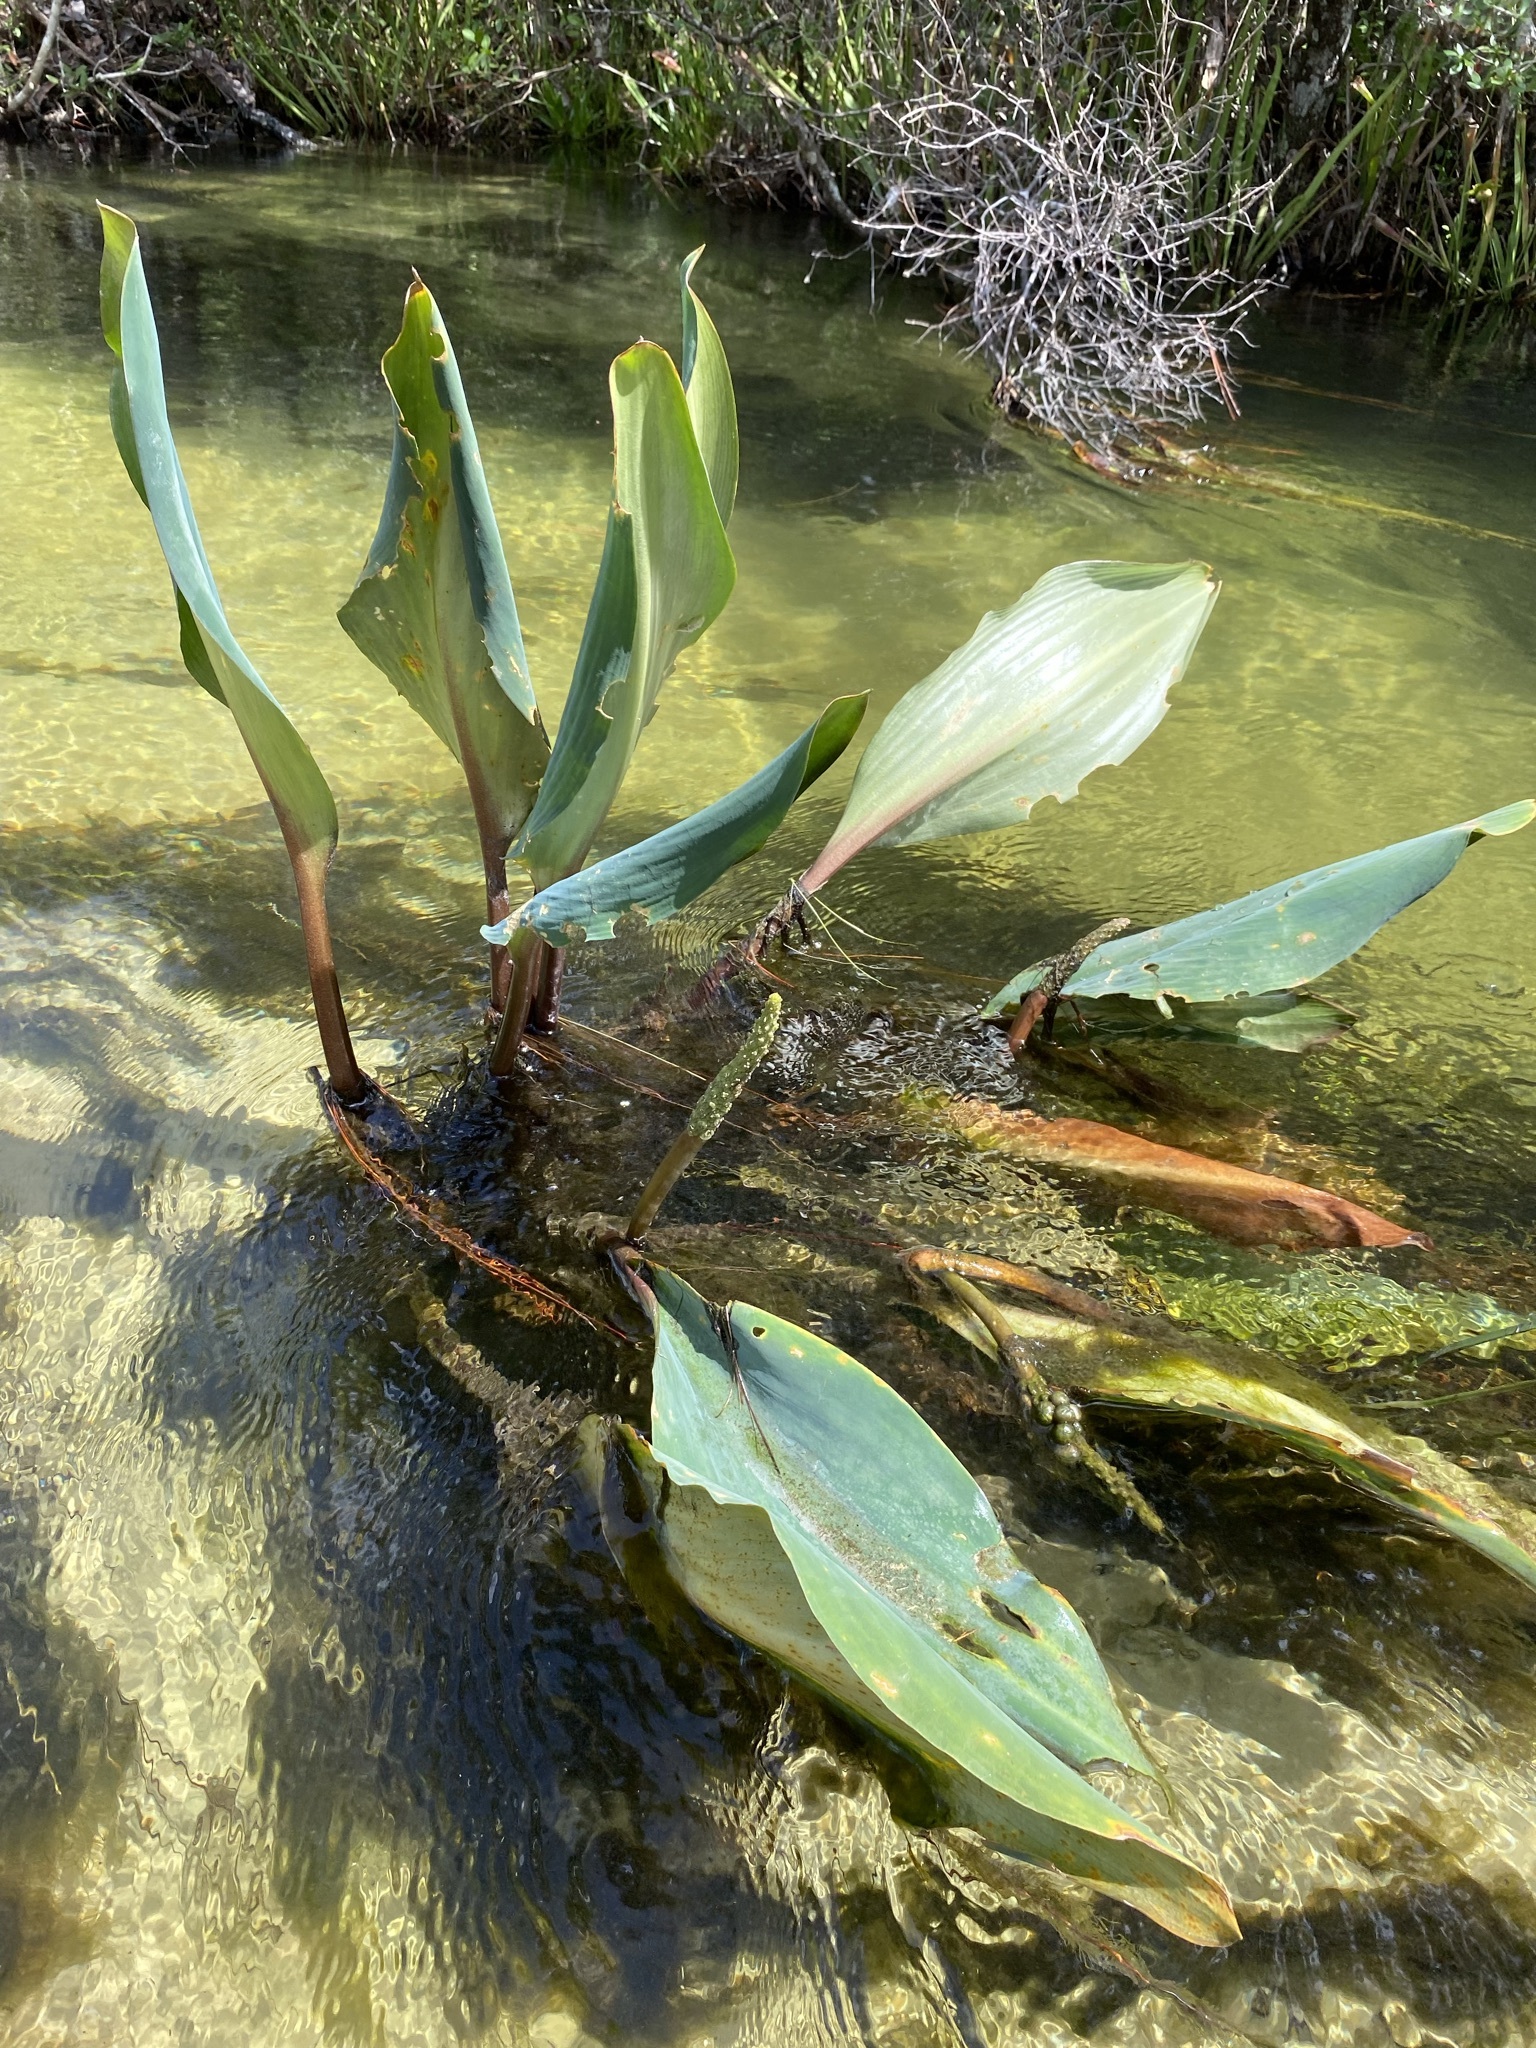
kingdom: Plantae
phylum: Tracheophyta
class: Liliopsida
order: Alismatales
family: Araceae
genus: Orontium
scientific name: Orontium aquaticum
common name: Golden-club
